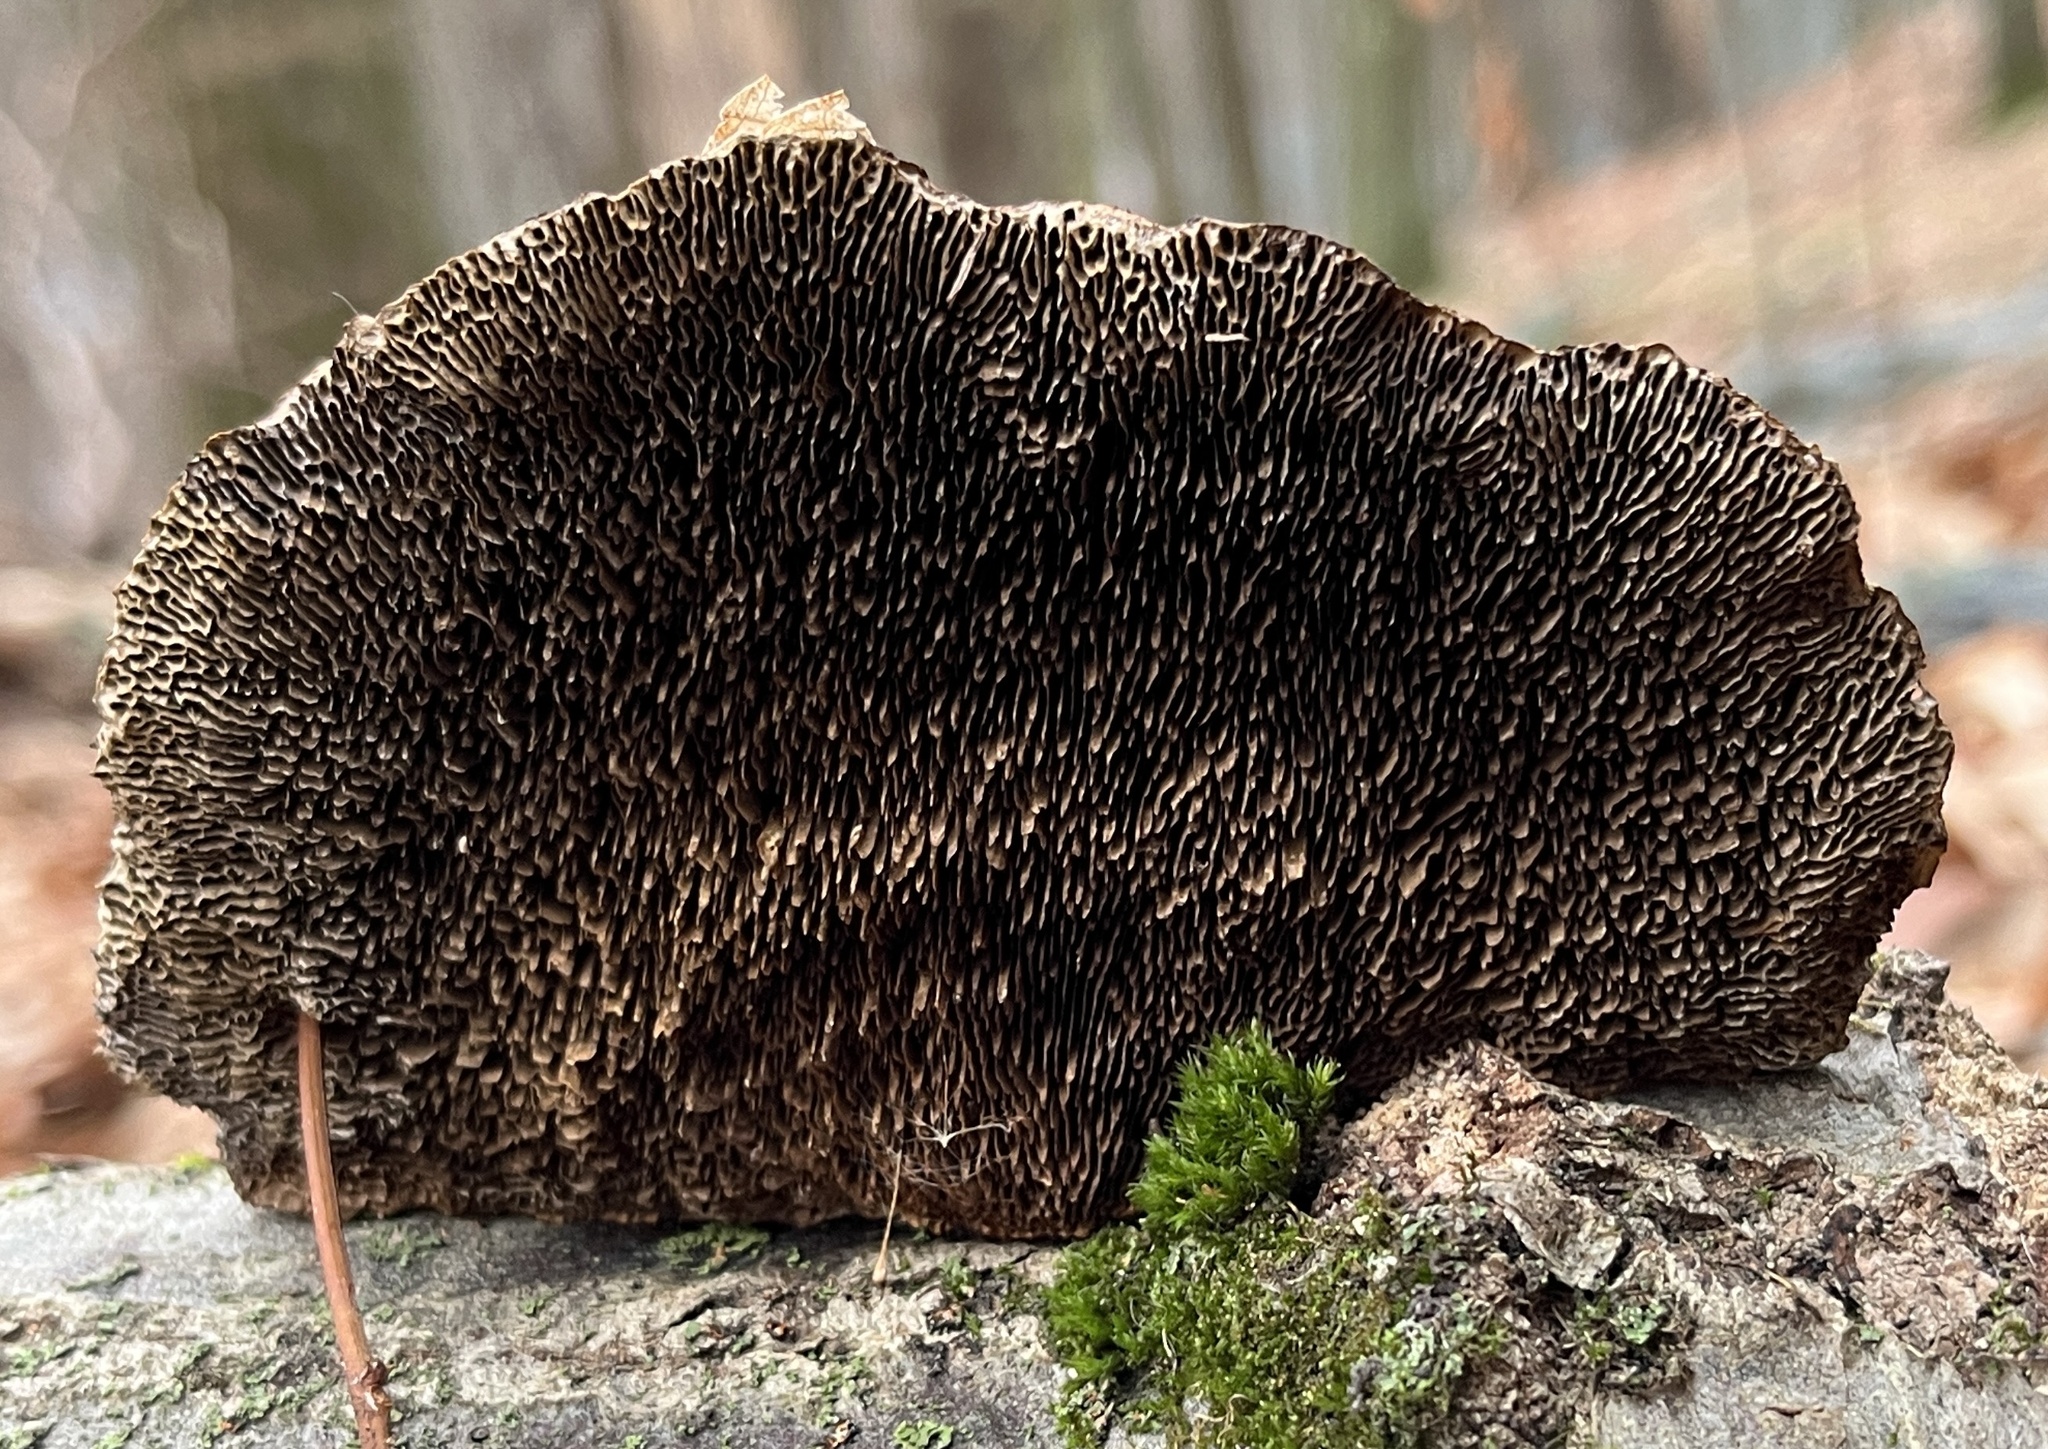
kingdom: Fungi
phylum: Basidiomycota
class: Agaricomycetes
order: Polyporales
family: Fomitopsidaceae
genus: Fomitopsis
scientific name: Fomitopsis
